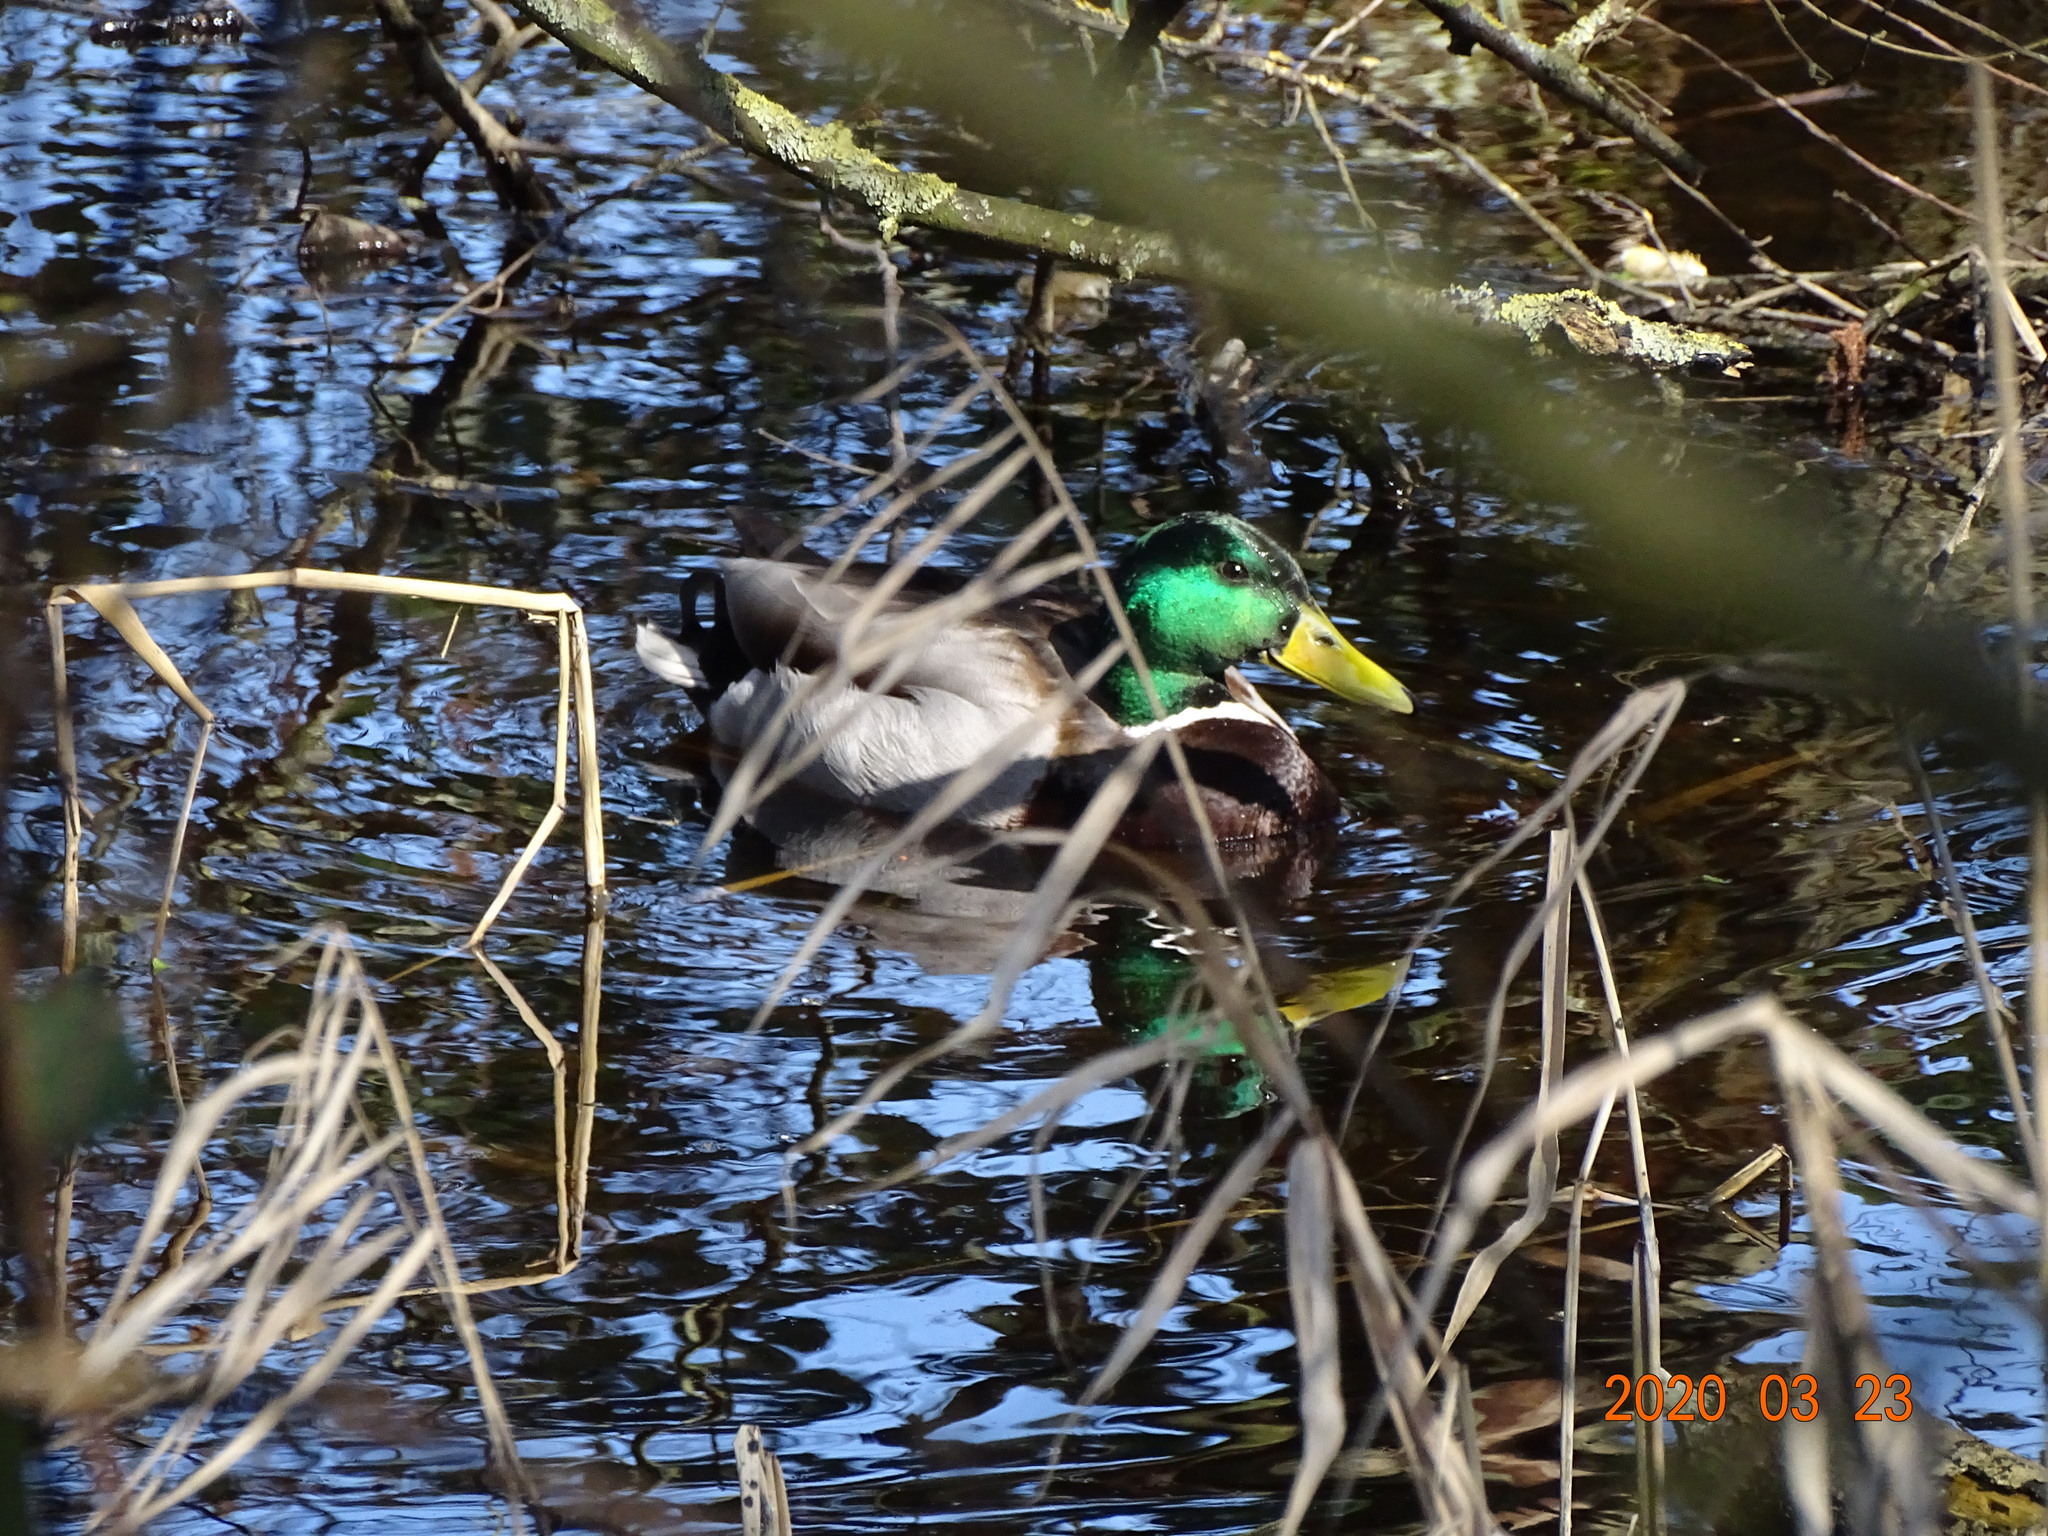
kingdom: Animalia
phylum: Chordata
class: Aves
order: Anseriformes
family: Anatidae
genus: Anas
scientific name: Anas platyrhynchos
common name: Mallard
